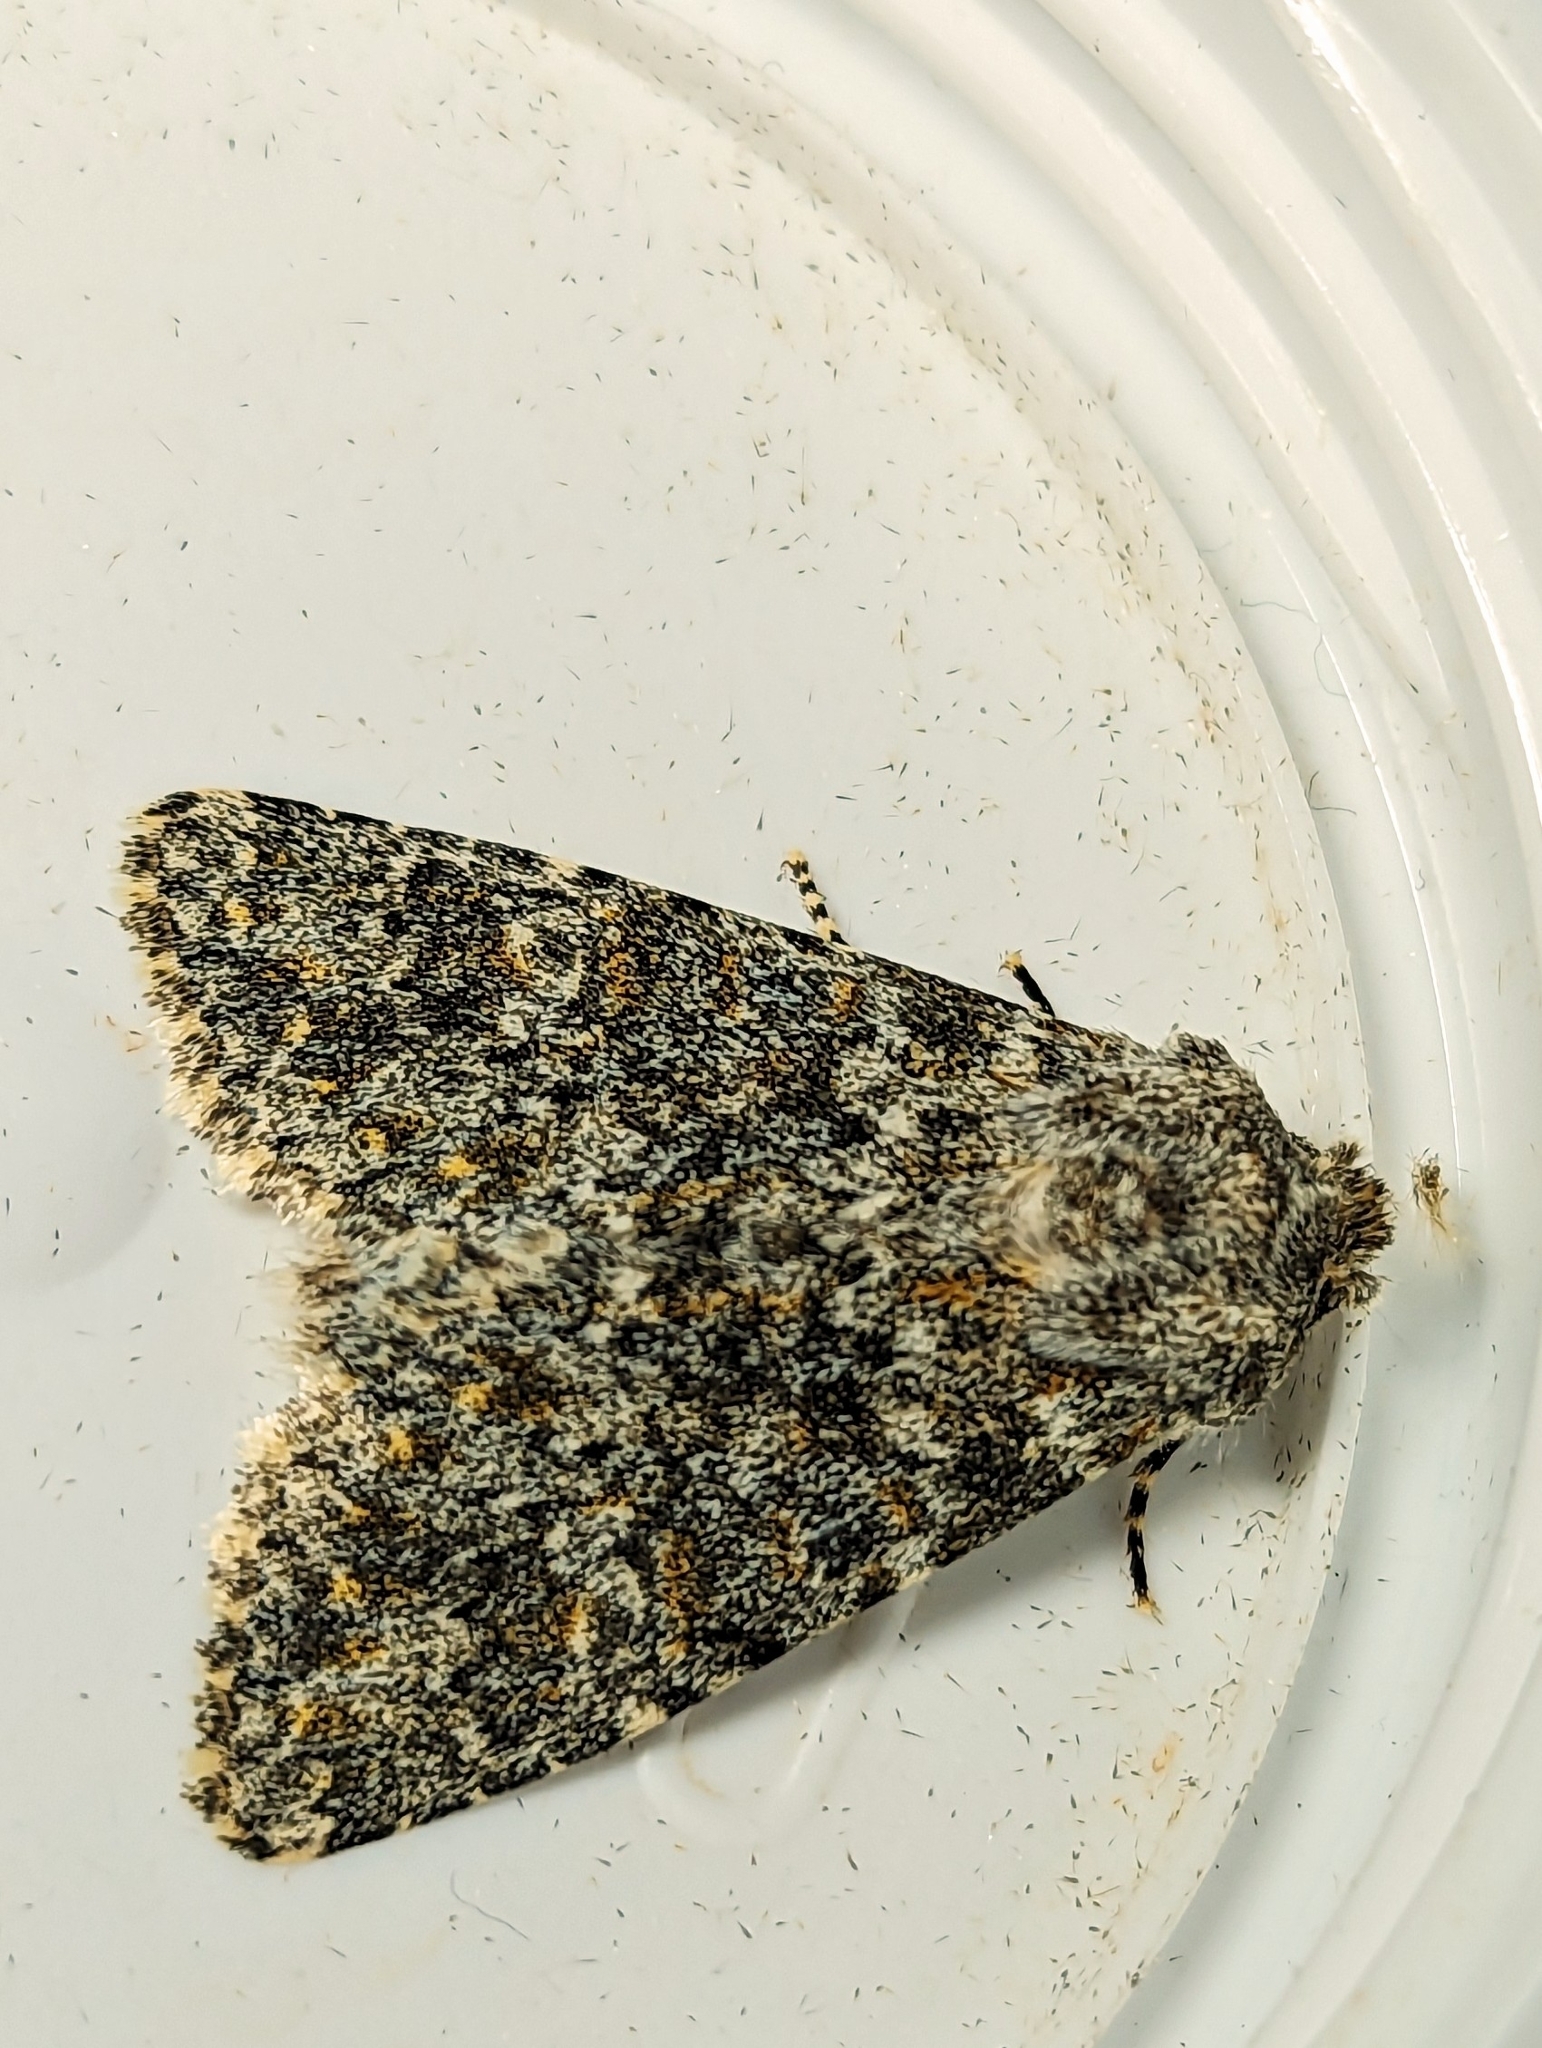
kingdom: Animalia
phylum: Arthropoda
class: Insecta
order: Lepidoptera
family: Noctuidae
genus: Polymixis
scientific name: Polymixis flavicincta
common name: Large ranunculus
